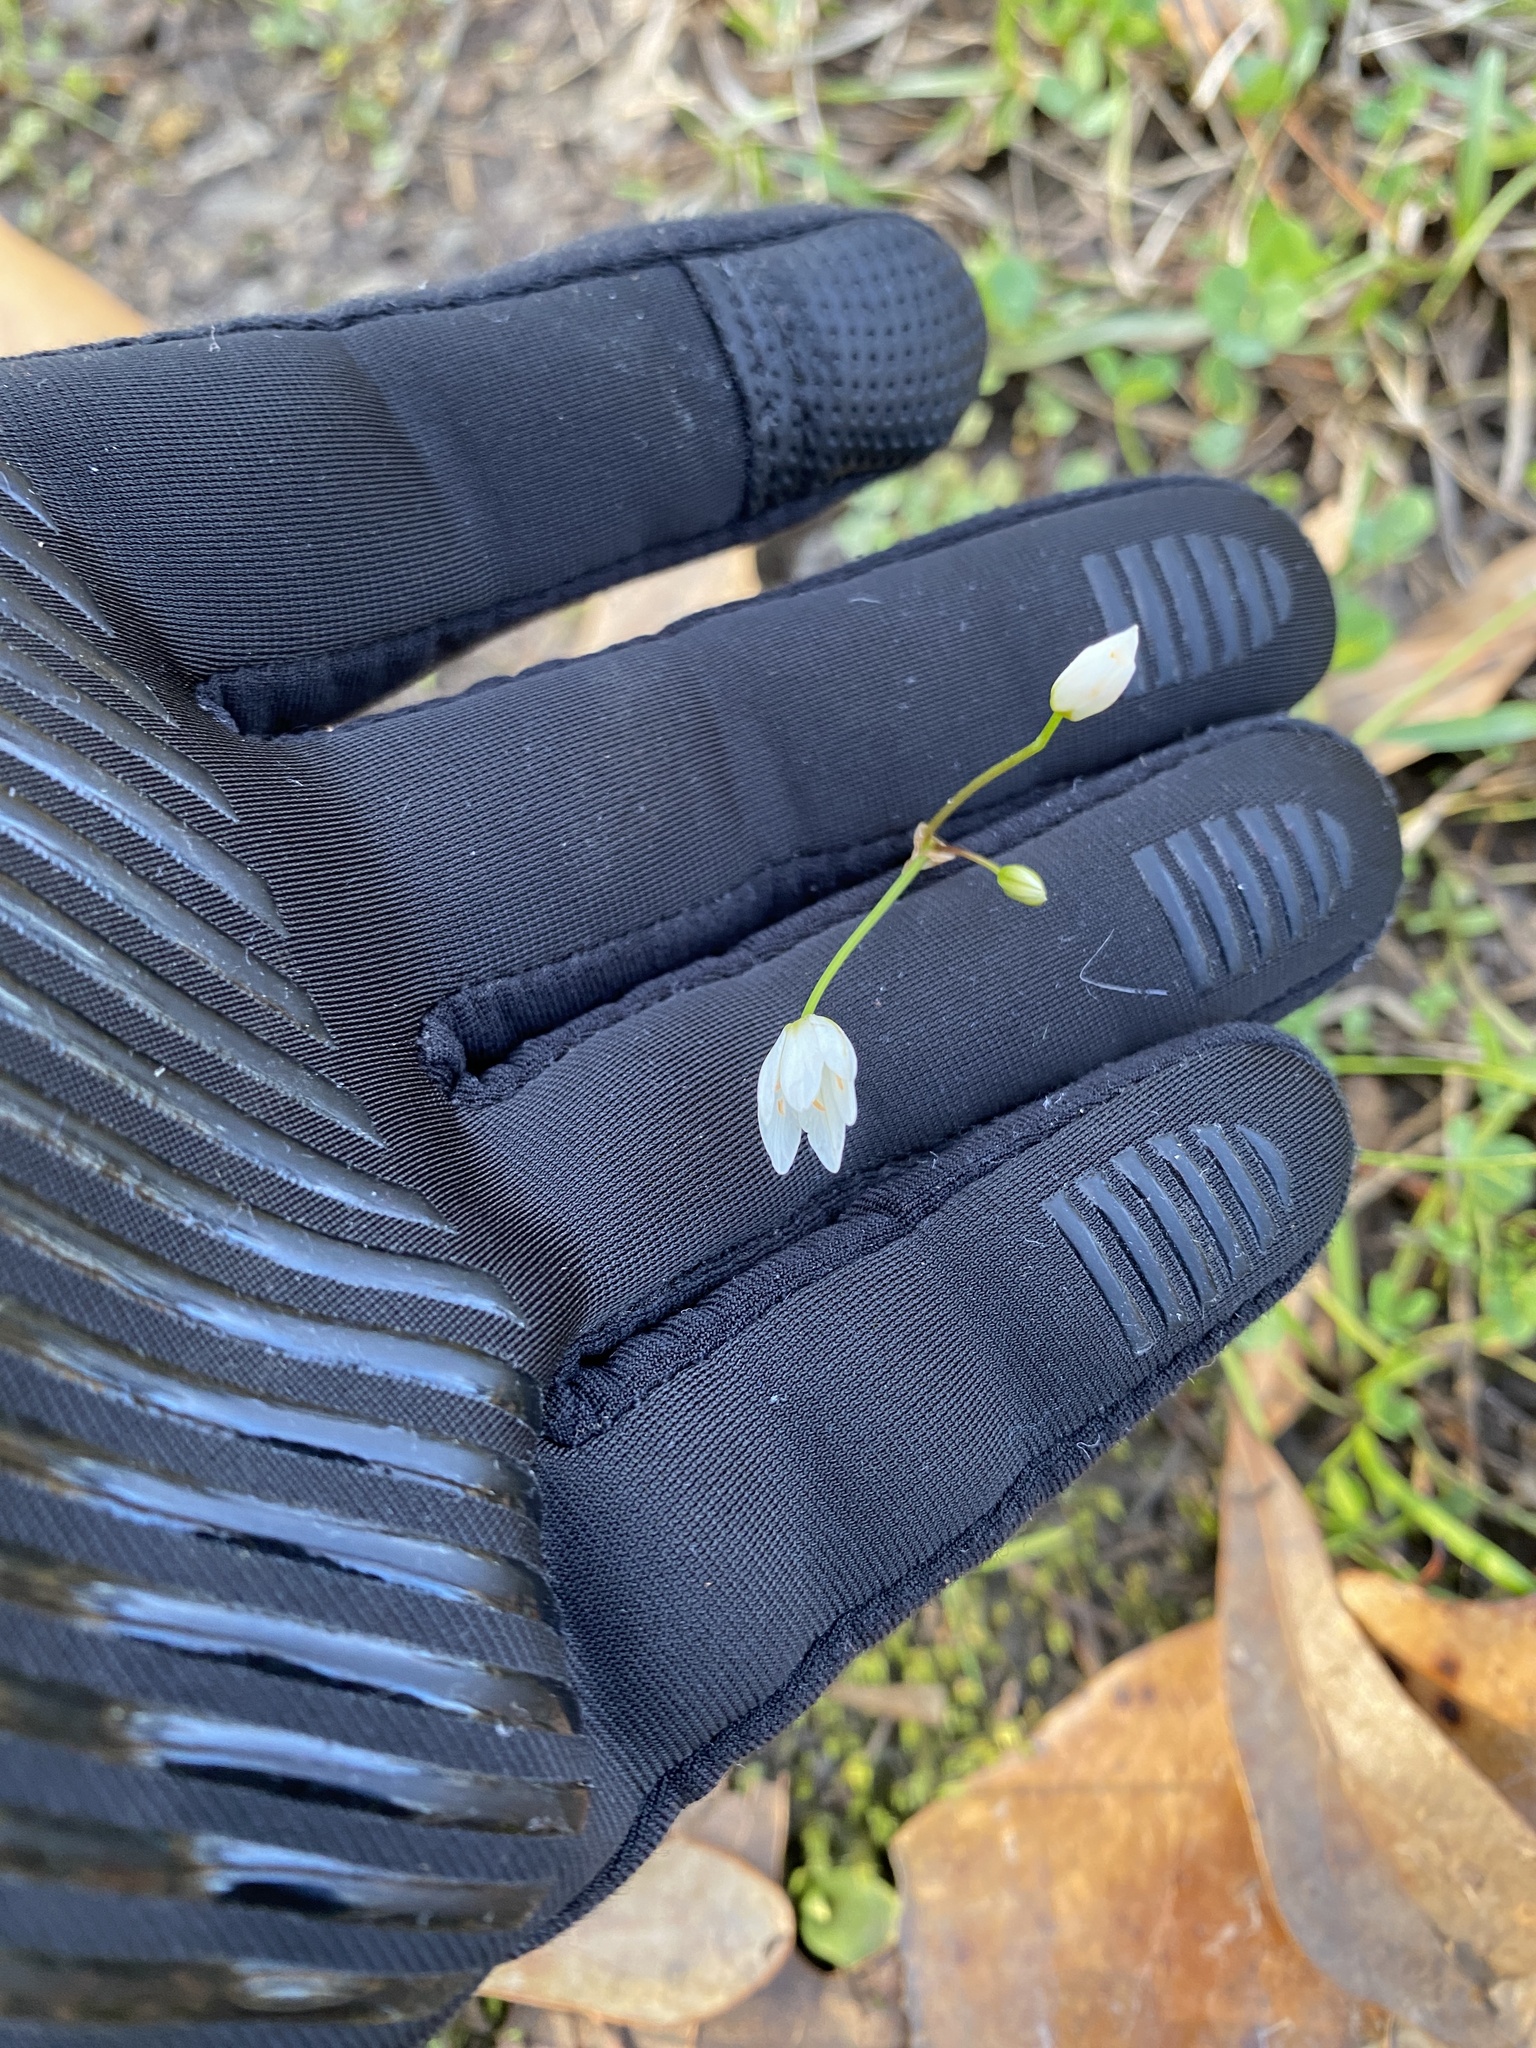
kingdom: Plantae
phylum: Tracheophyta
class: Liliopsida
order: Asparagales
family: Amaryllidaceae
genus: Nothoscordum
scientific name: Nothoscordum bivalve
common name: Crow-poison
